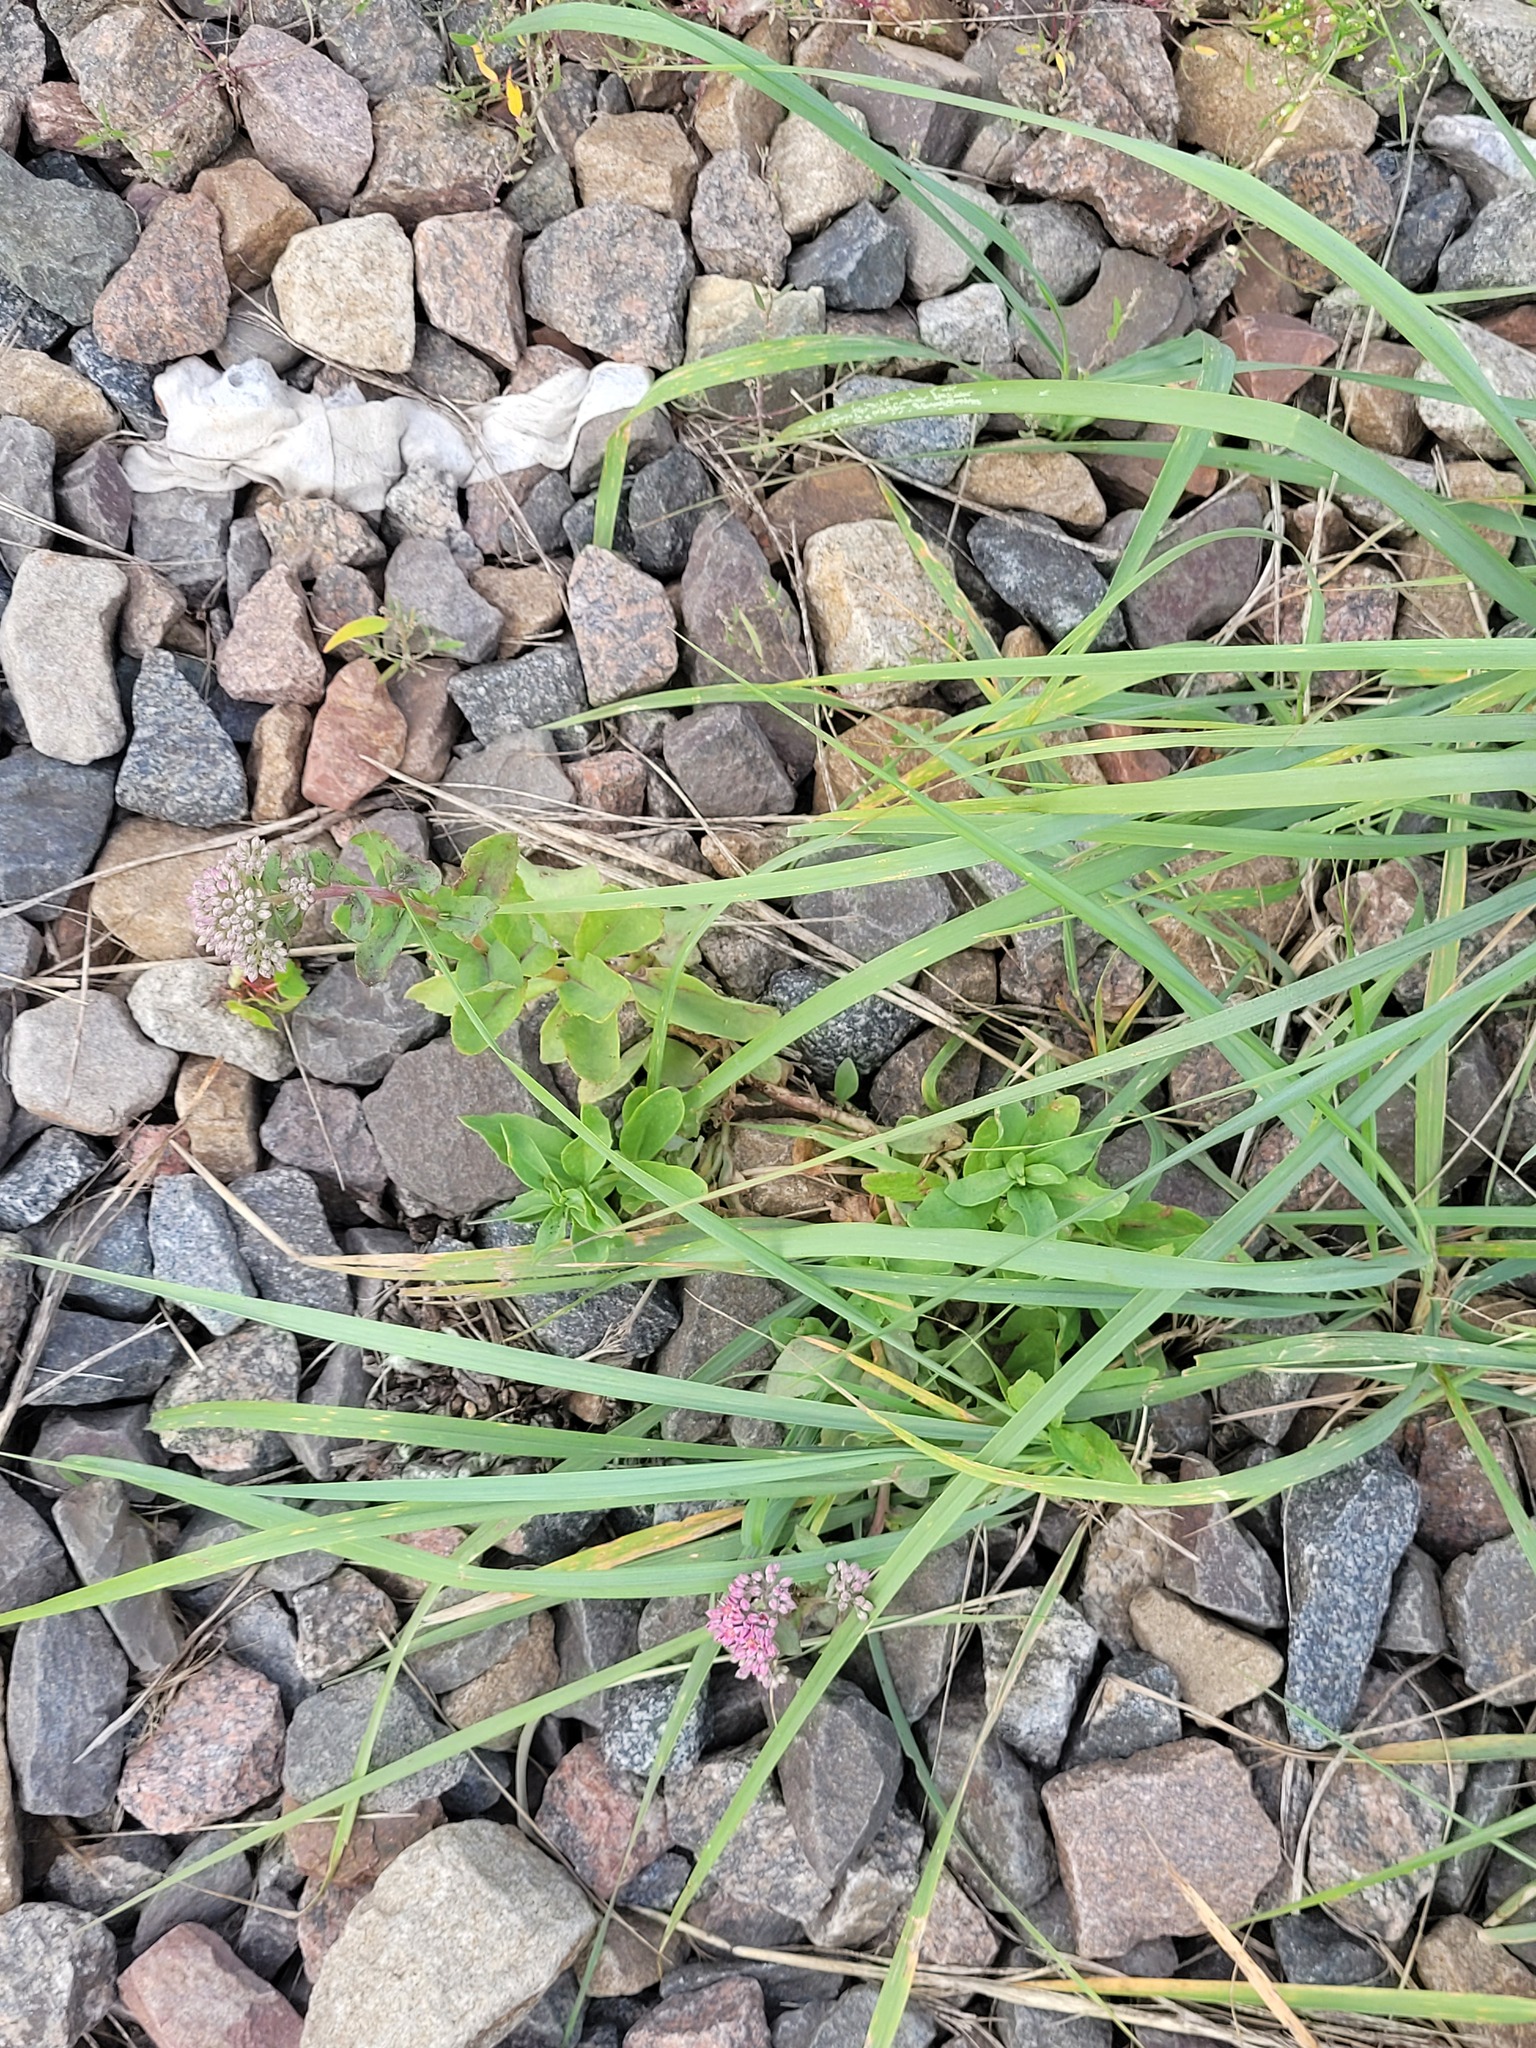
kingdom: Plantae
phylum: Tracheophyta
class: Magnoliopsida
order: Saxifragales
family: Crassulaceae
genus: Hylotelephium
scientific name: Hylotelephium telephium
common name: Live-forever
